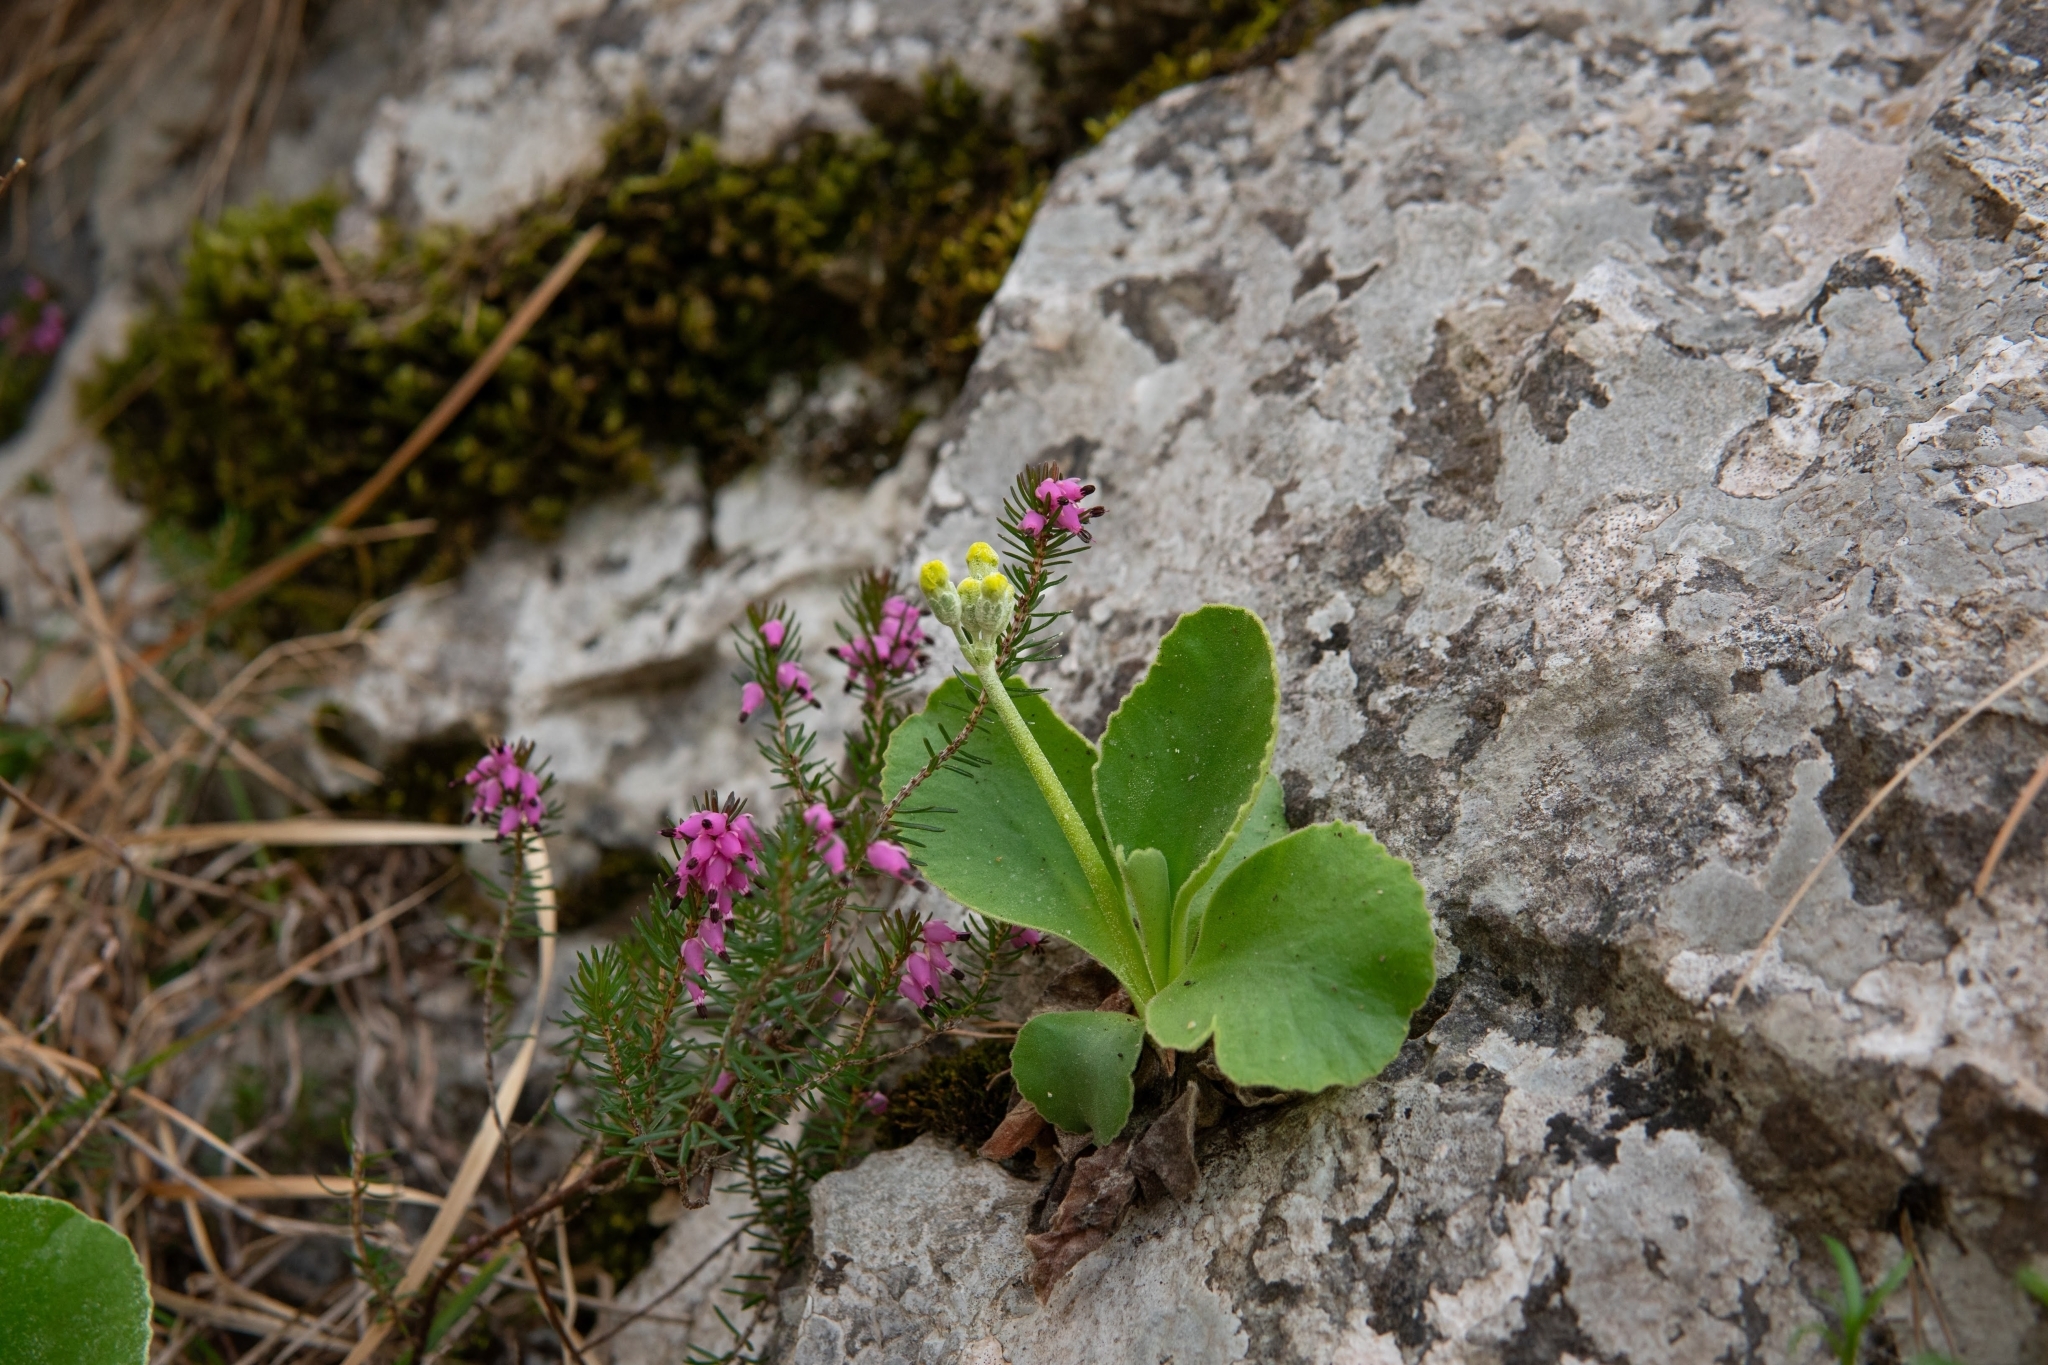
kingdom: Plantae
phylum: Tracheophyta
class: Magnoliopsida
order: Ericales
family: Primulaceae
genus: Primula
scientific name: Primula auricula
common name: Auricula
